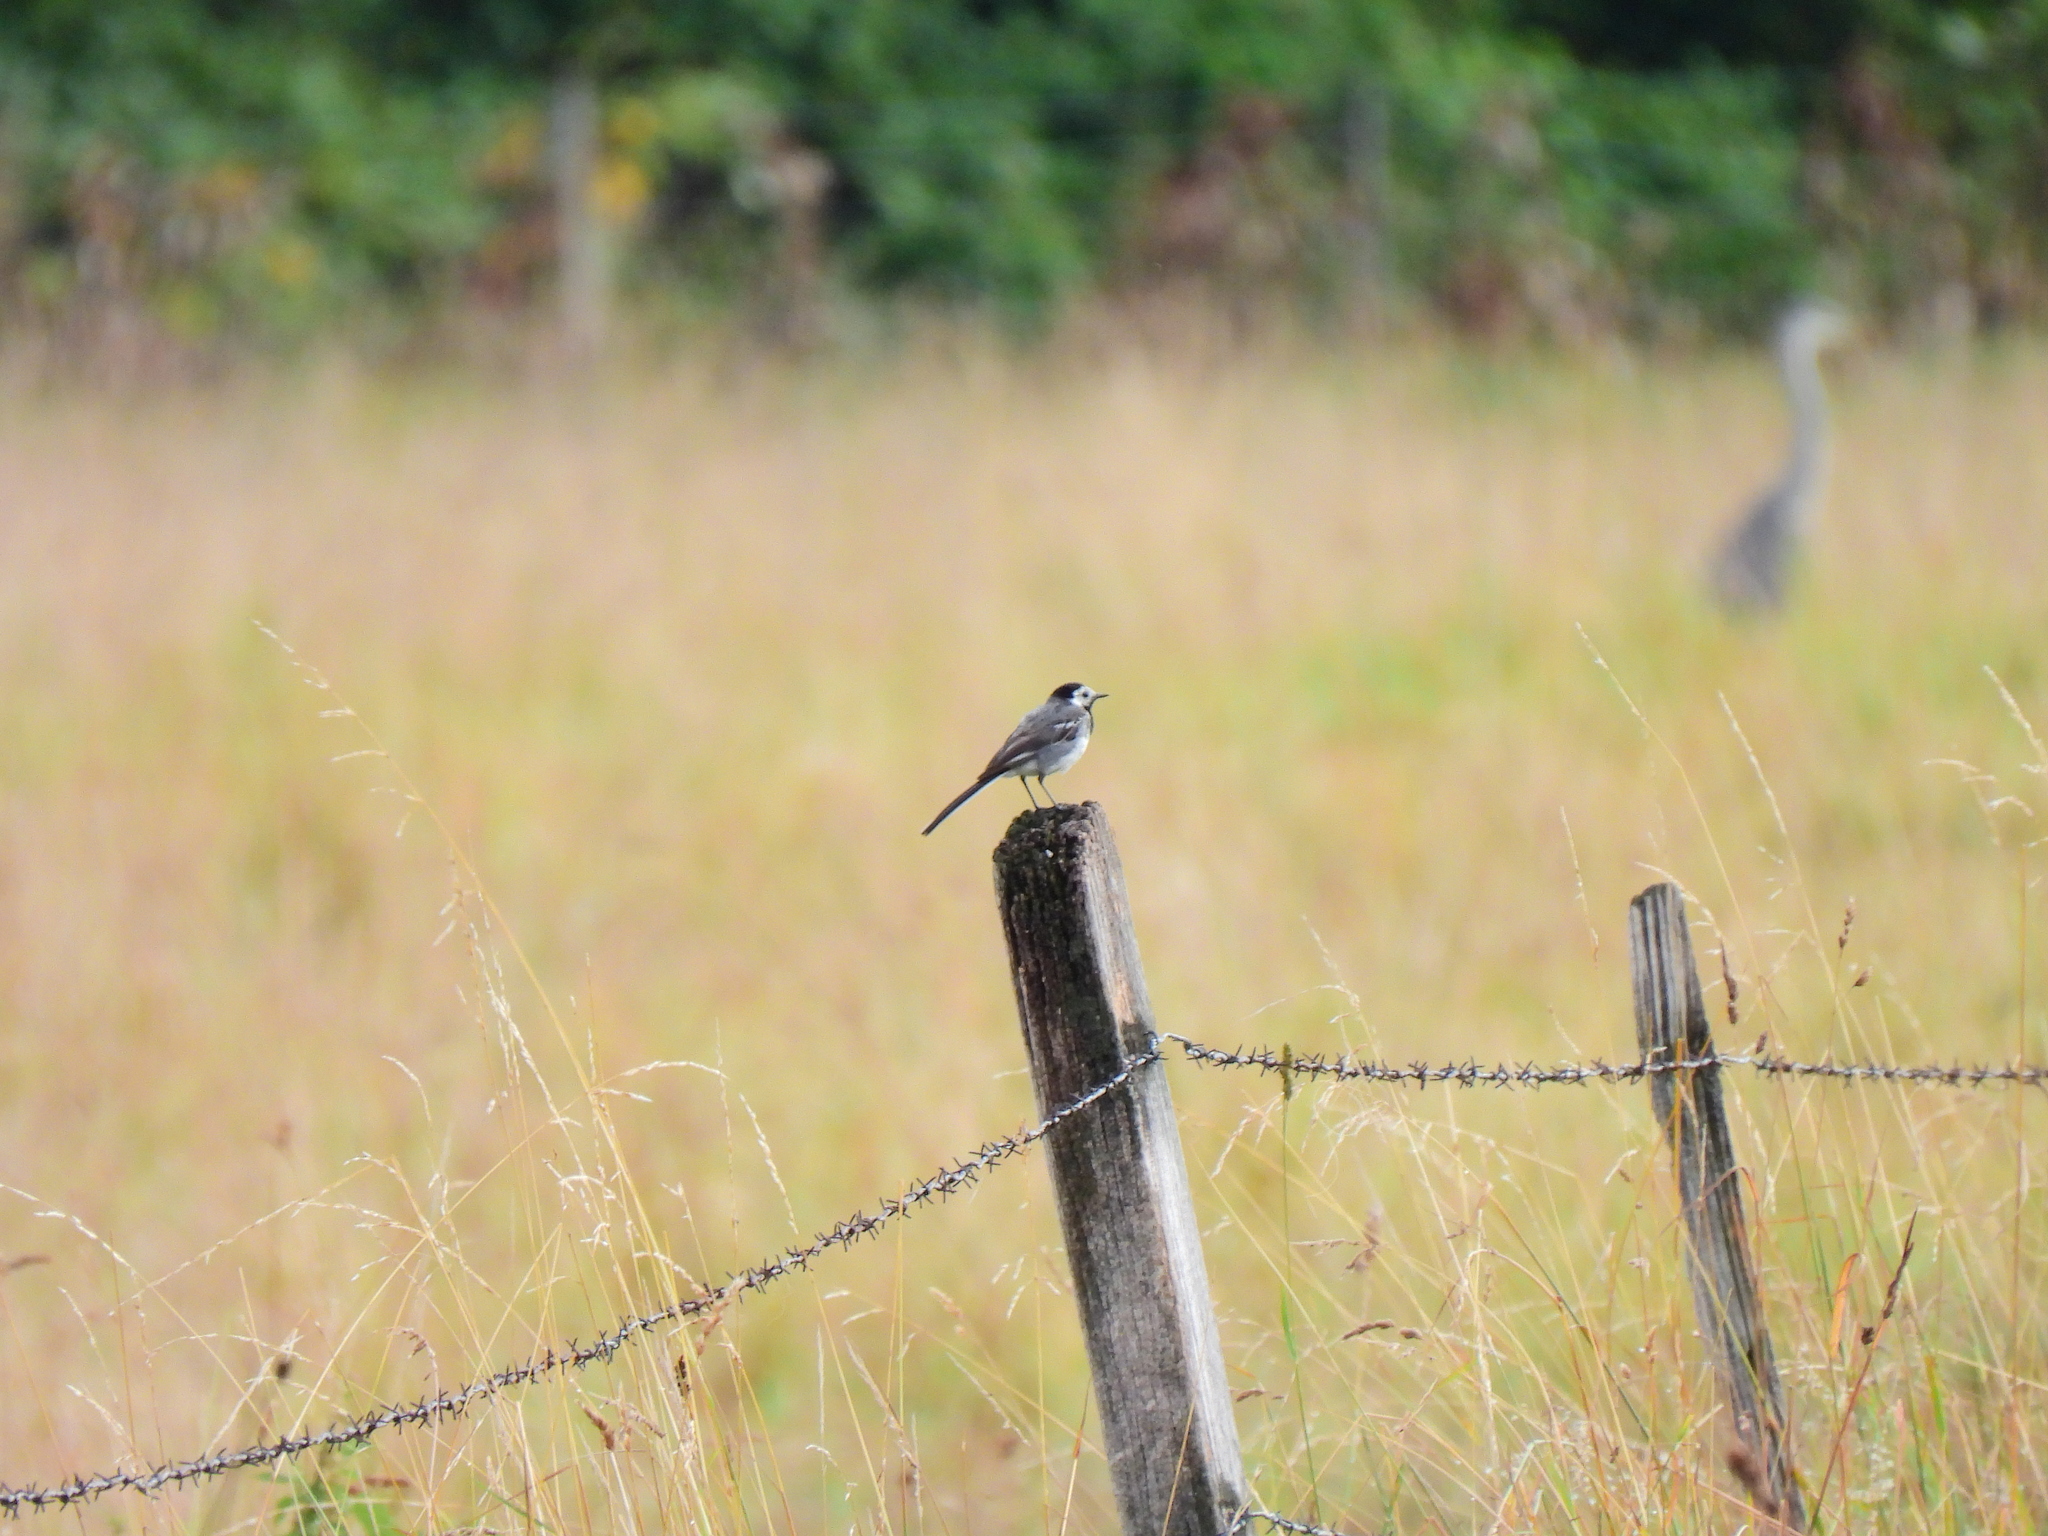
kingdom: Animalia
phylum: Chordata
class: Aves
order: Passeriformes
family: Motacillidae
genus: Motacilla
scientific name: Motacilla alba
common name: White wagtail
